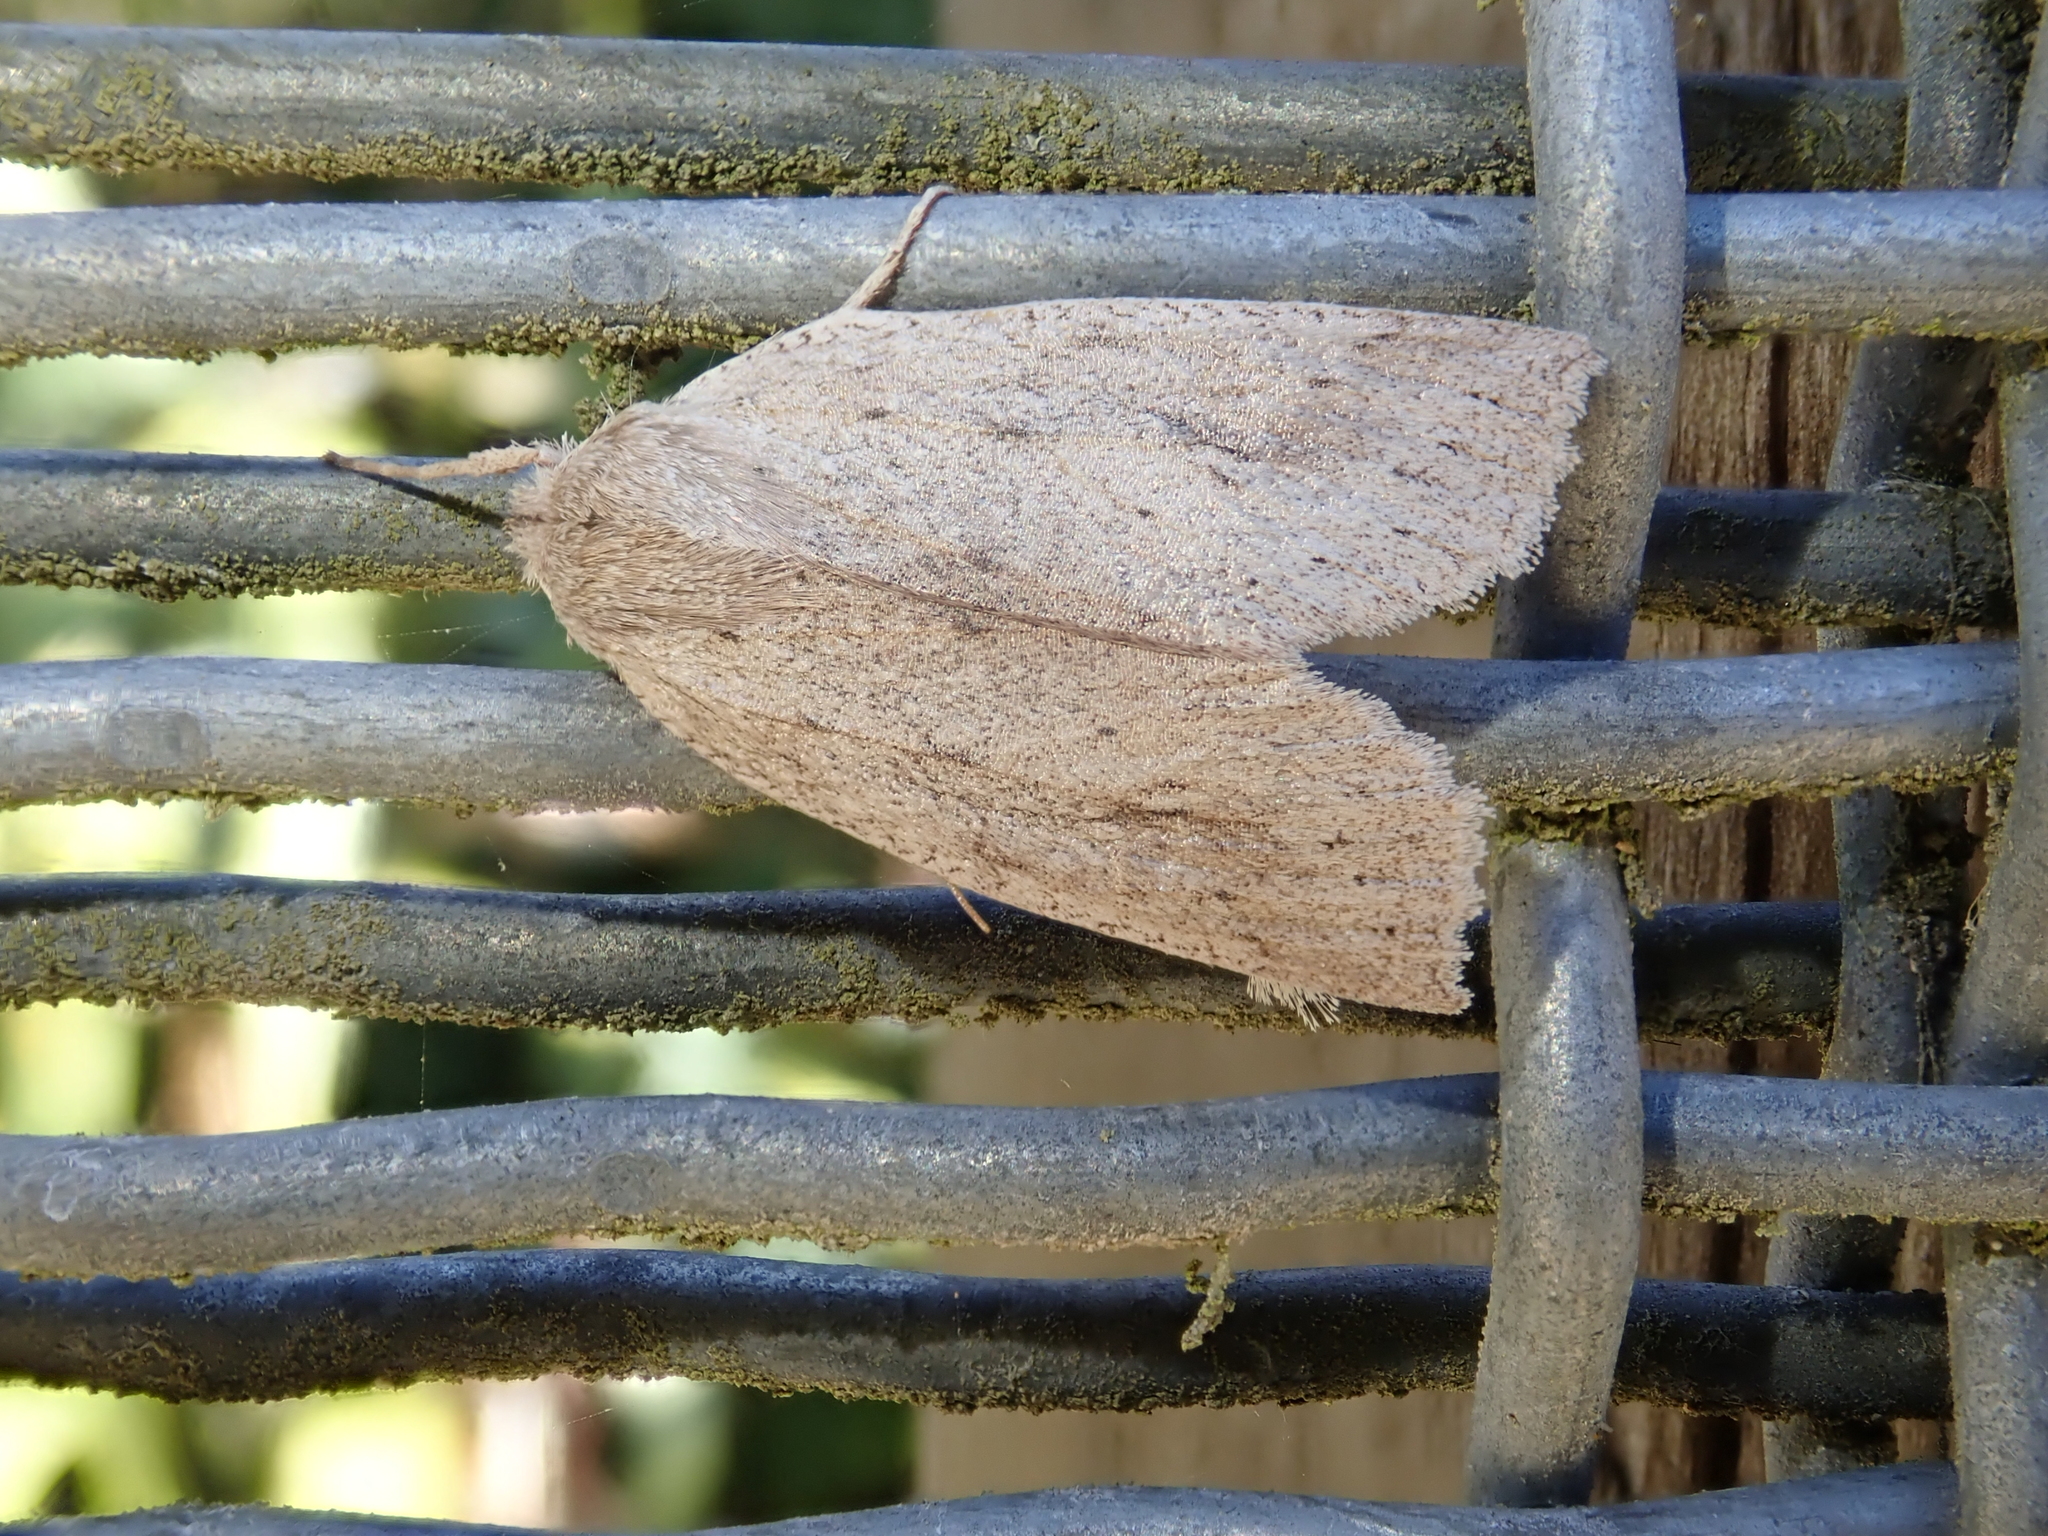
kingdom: Animalia
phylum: Arthropoda
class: Insecta
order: Lepidoptera
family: Geometridae
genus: Declana
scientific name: Declana leptomera
